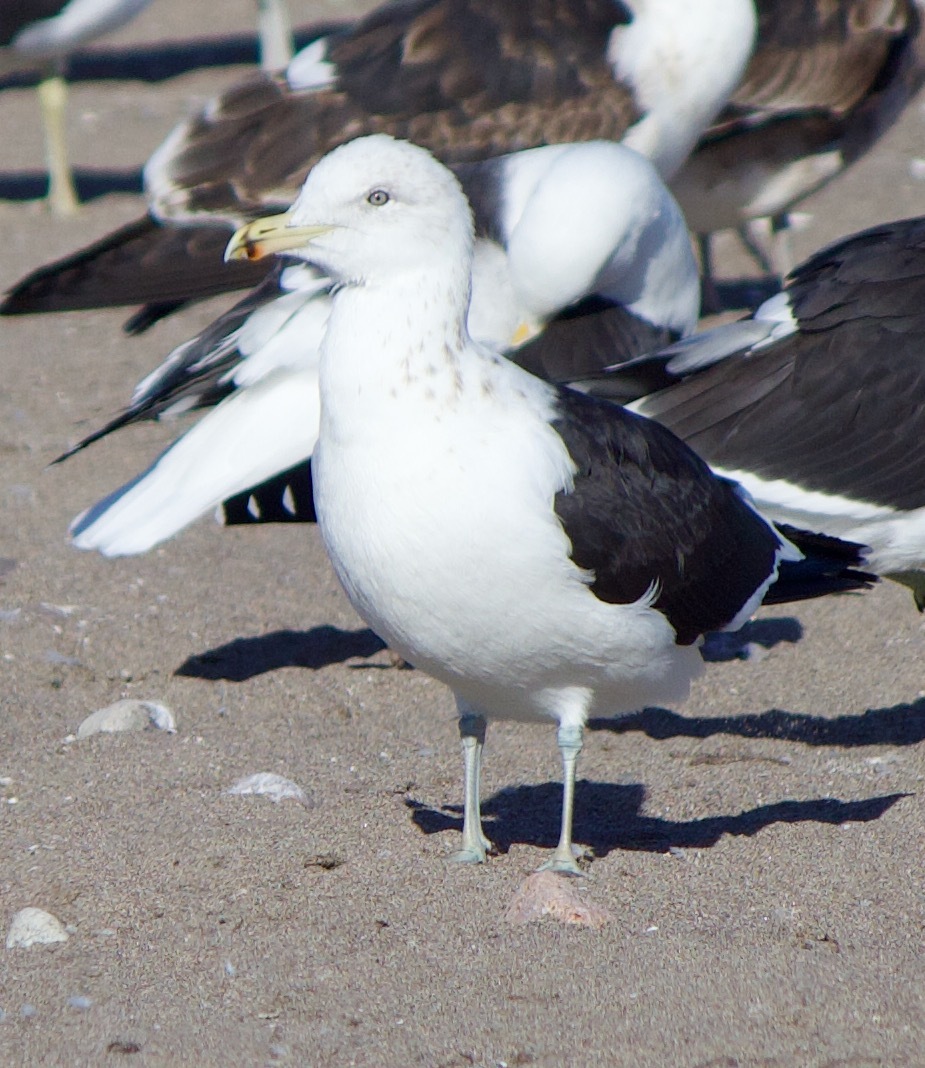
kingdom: Animalia
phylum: Chordata
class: Aves
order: Charadriiformes
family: Laridae
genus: Larus
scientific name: Larus dominicanus
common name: Kelp gull
